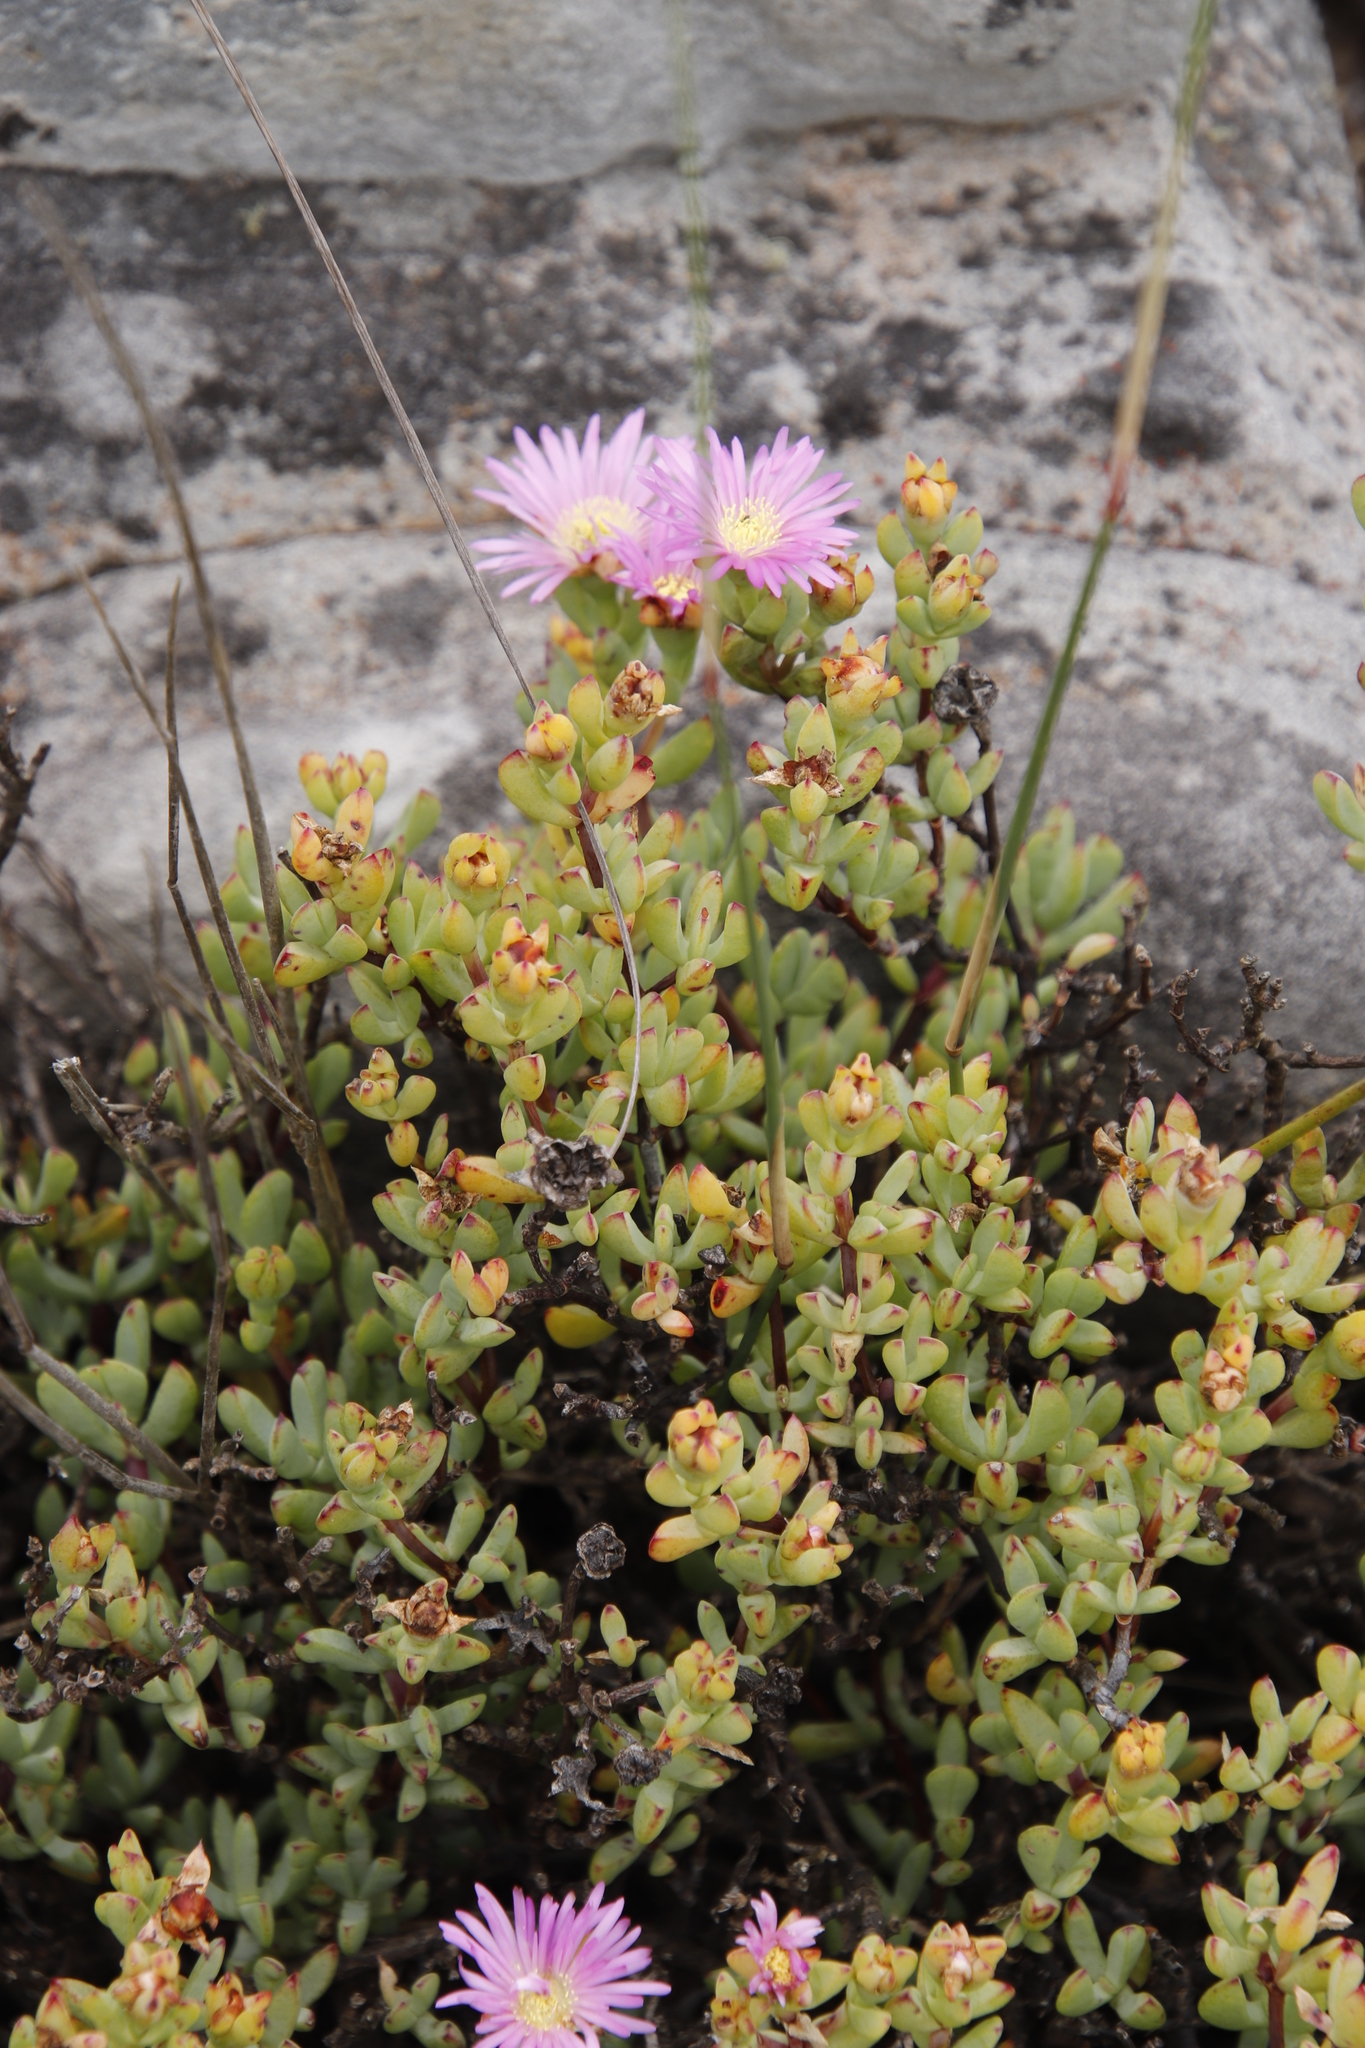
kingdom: Plantae
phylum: Tracheophyta
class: Magnoliopsida
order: Caryophyllales
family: Aizoaceae
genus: Oscularia
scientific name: Oscularia falciformis
